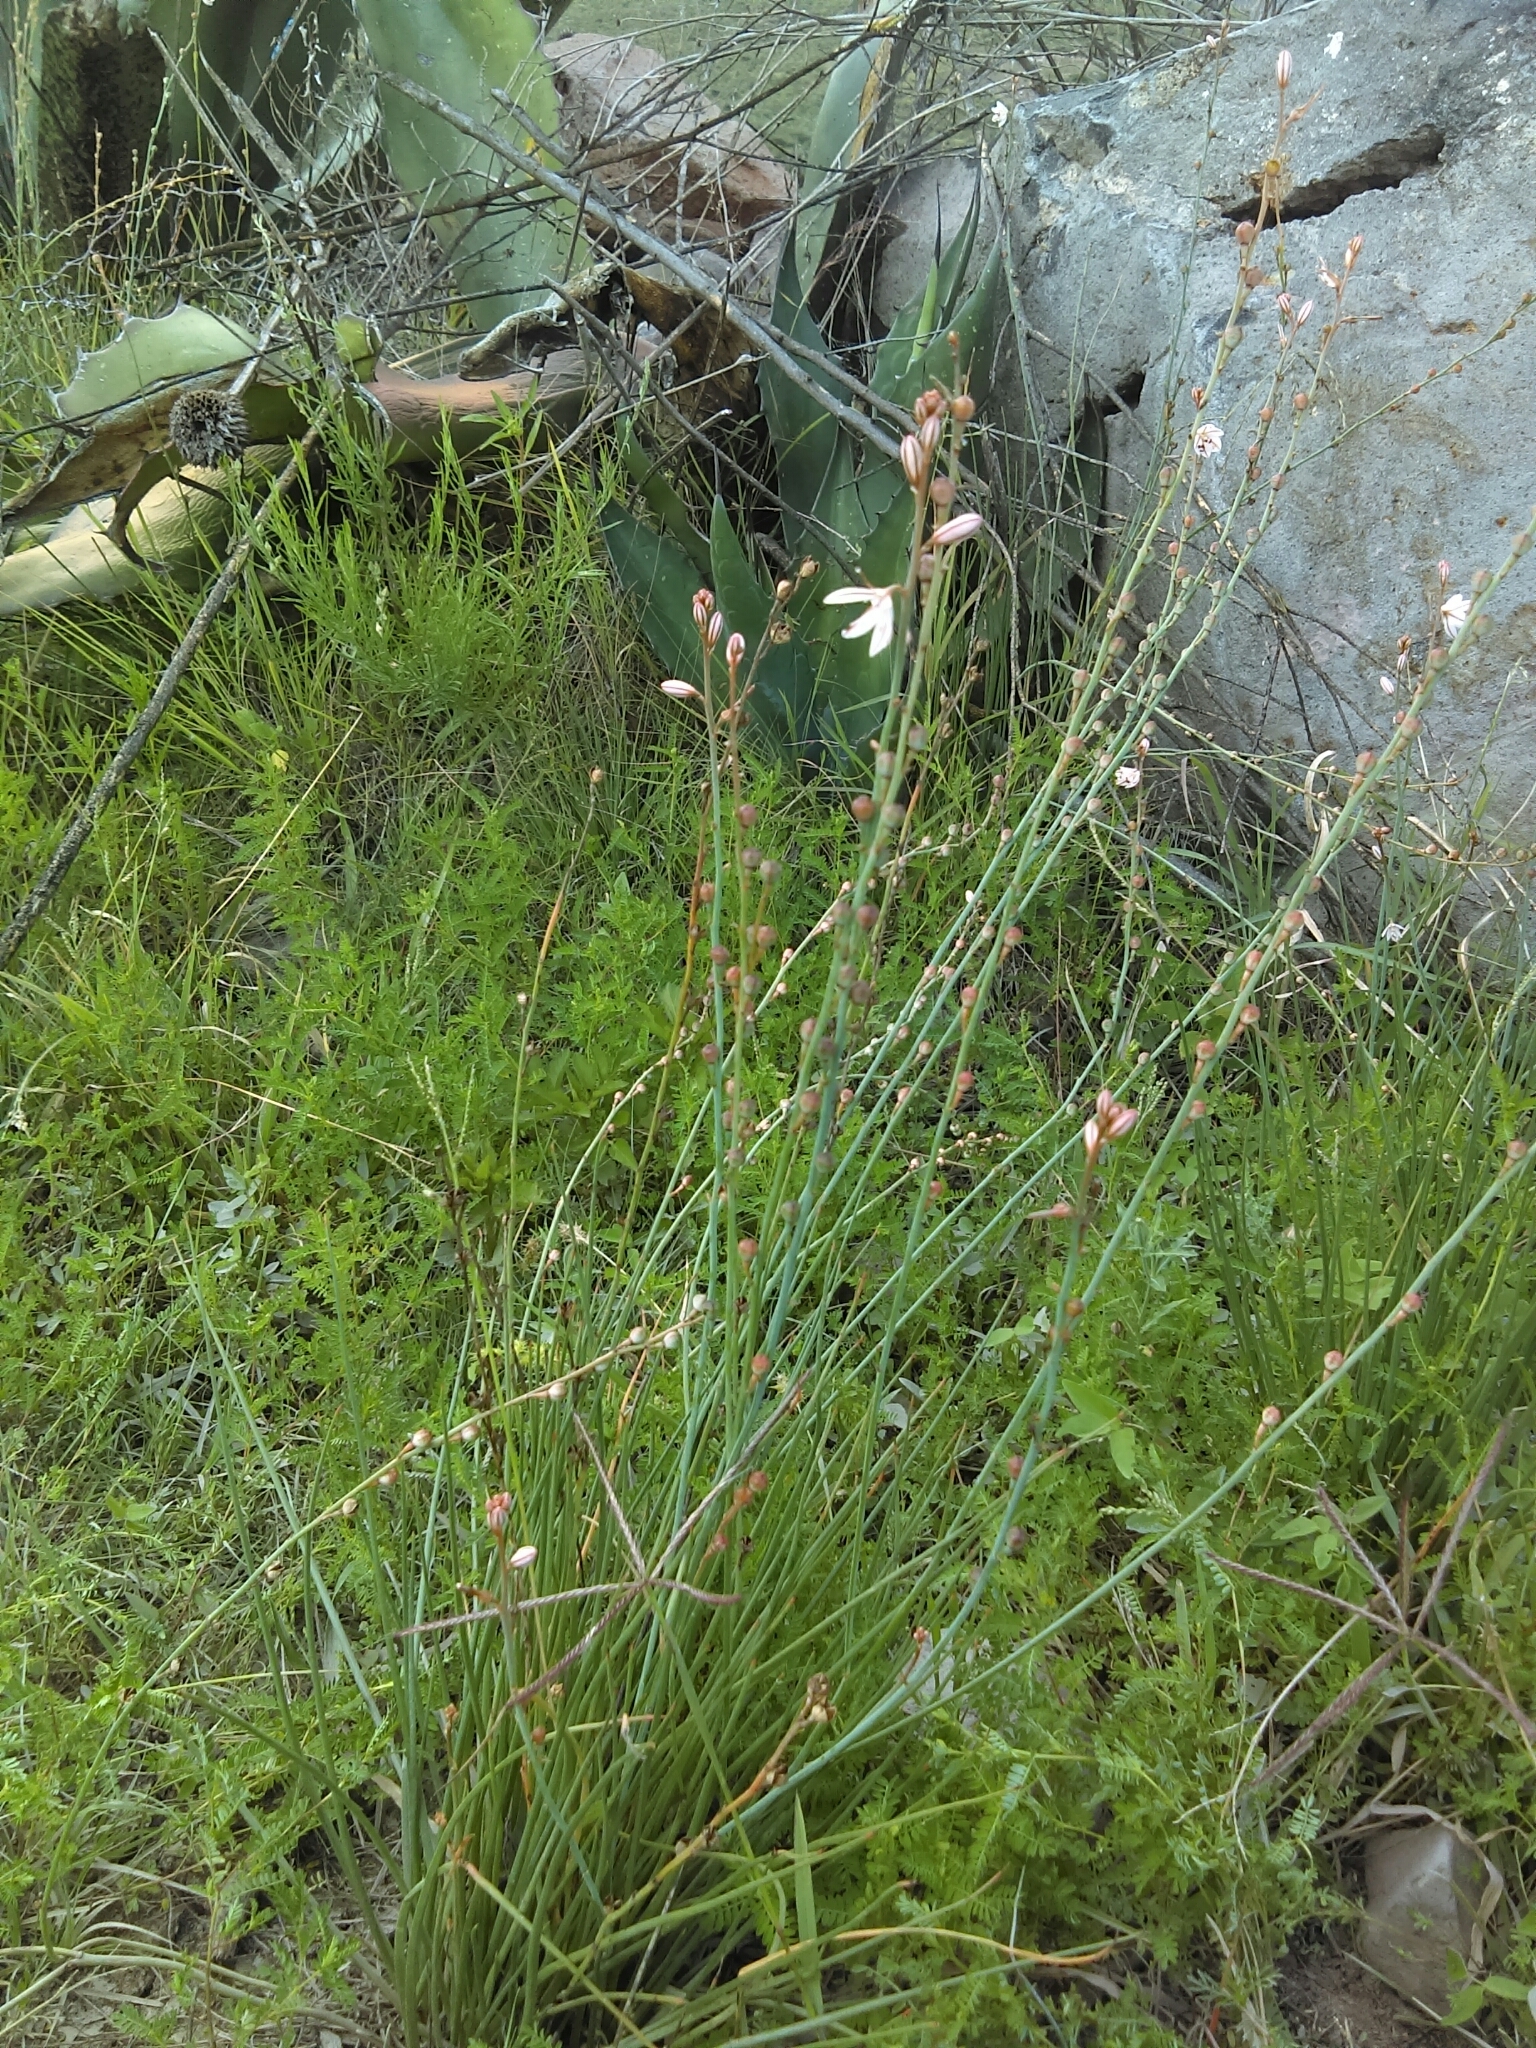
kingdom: Plantae
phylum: Tracheophyta
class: Liliopsida
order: Asparagales
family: Asphodelaceae
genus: Asphodelus
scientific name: Asphodelus fistulosus
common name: Onionweed
